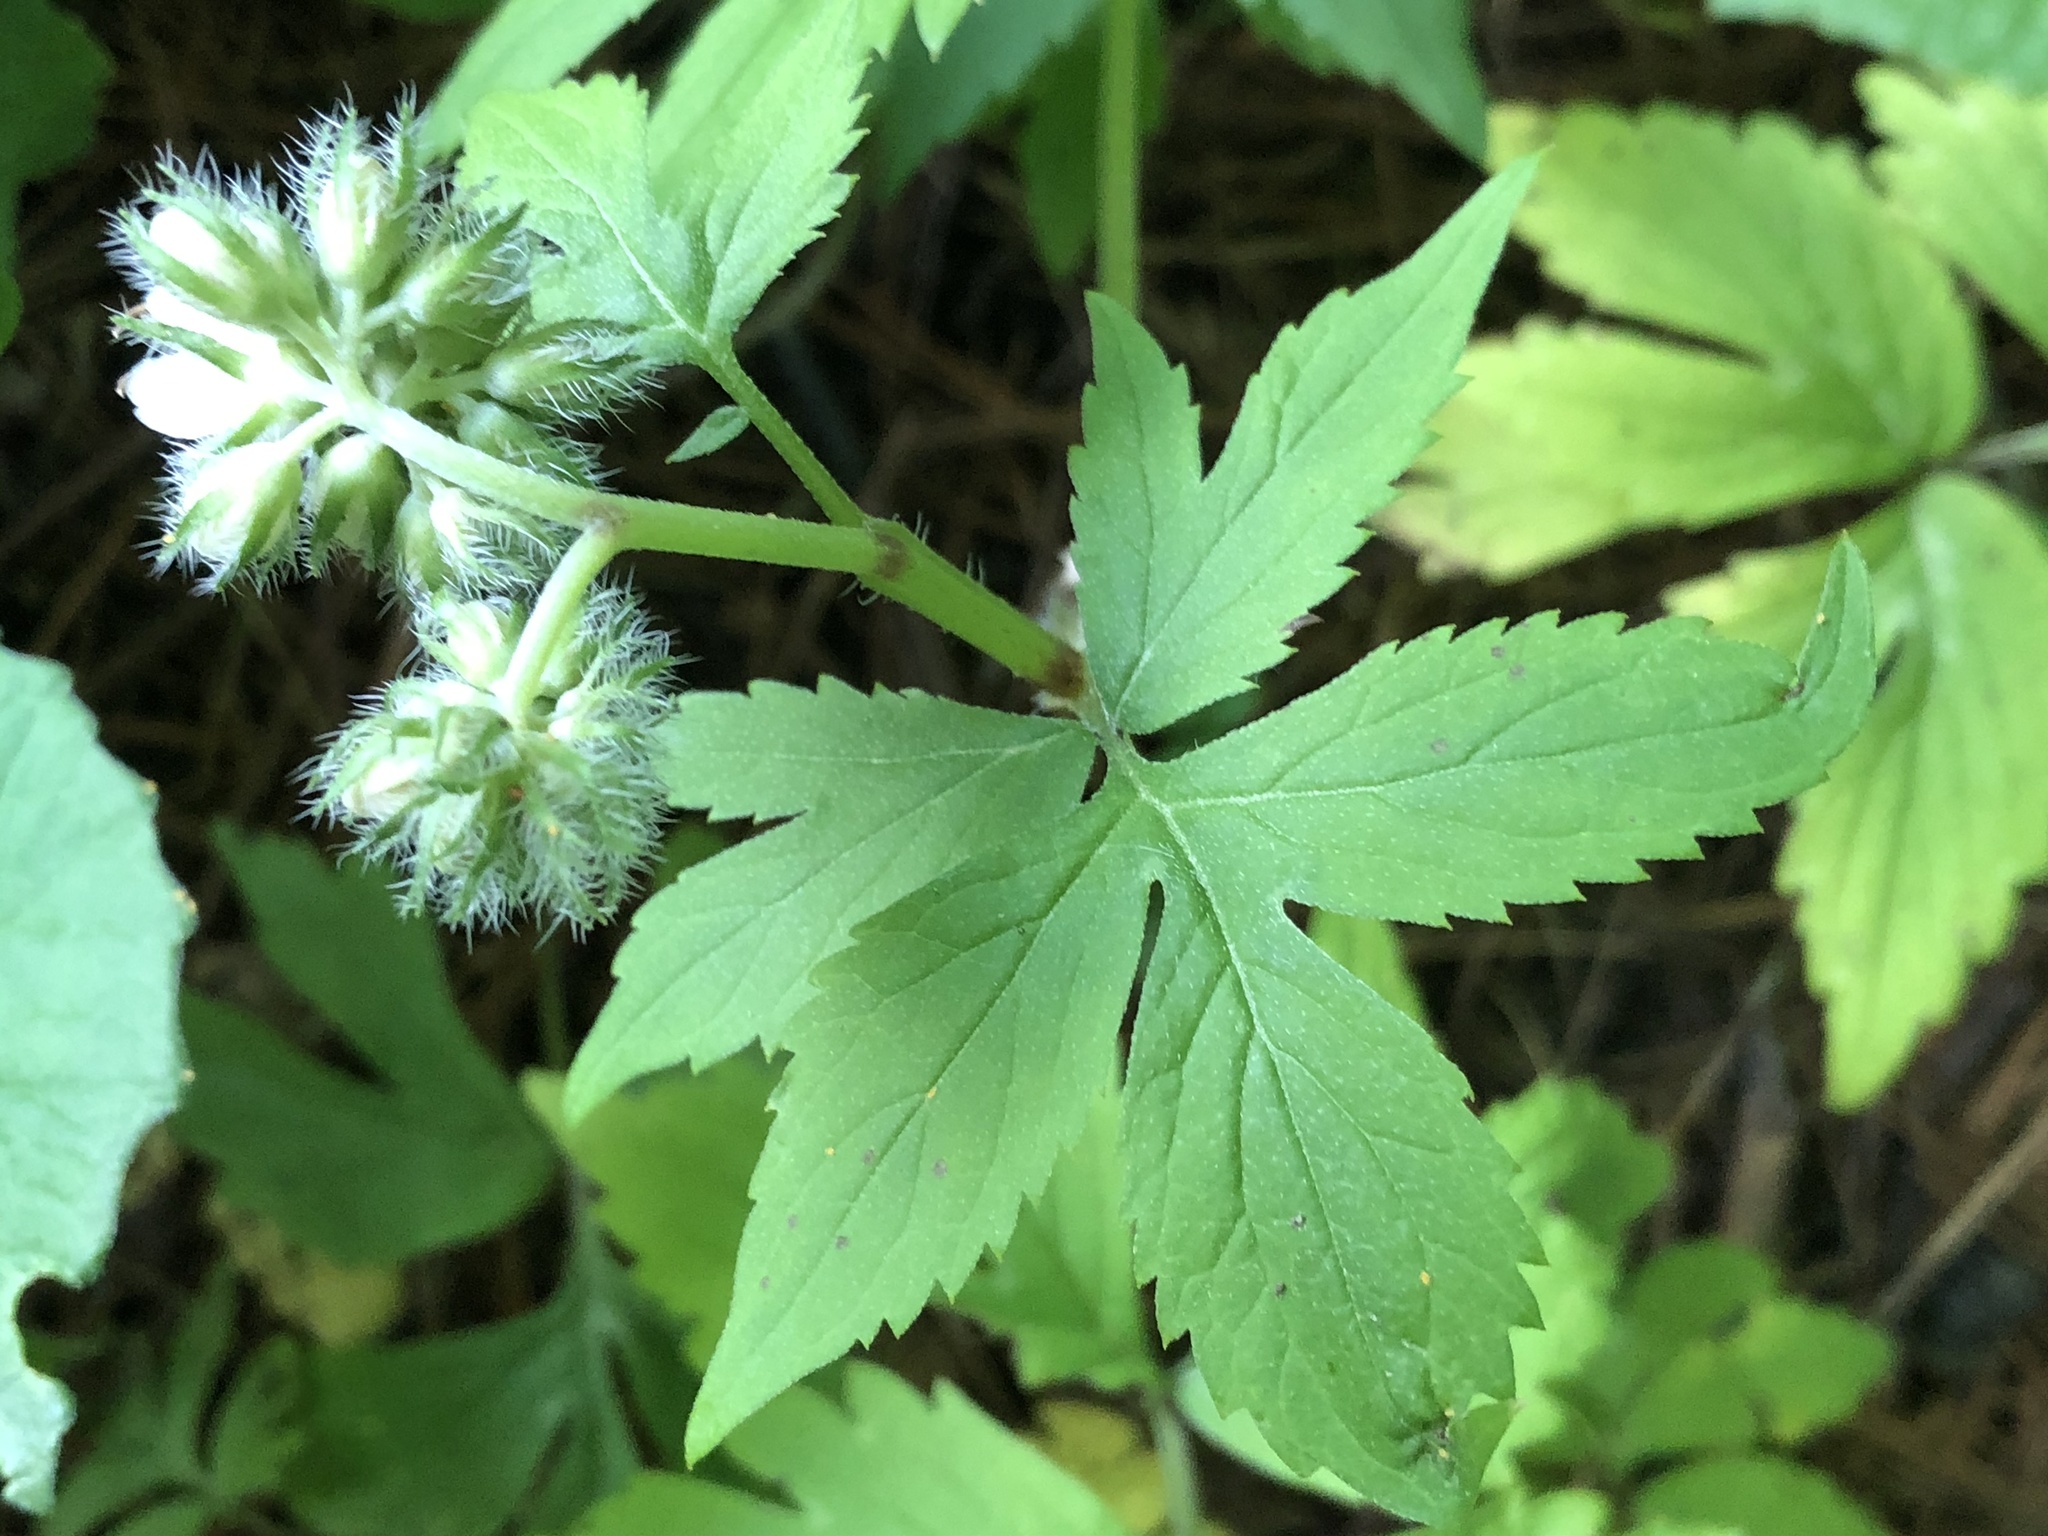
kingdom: Plantae
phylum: Tracheophyta
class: Magnoliopsida
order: Boraginales
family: Hydrophyllaceae
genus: Hydrophyllum
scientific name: Hydrophyllum virginianum
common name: Virginia waterleaf
